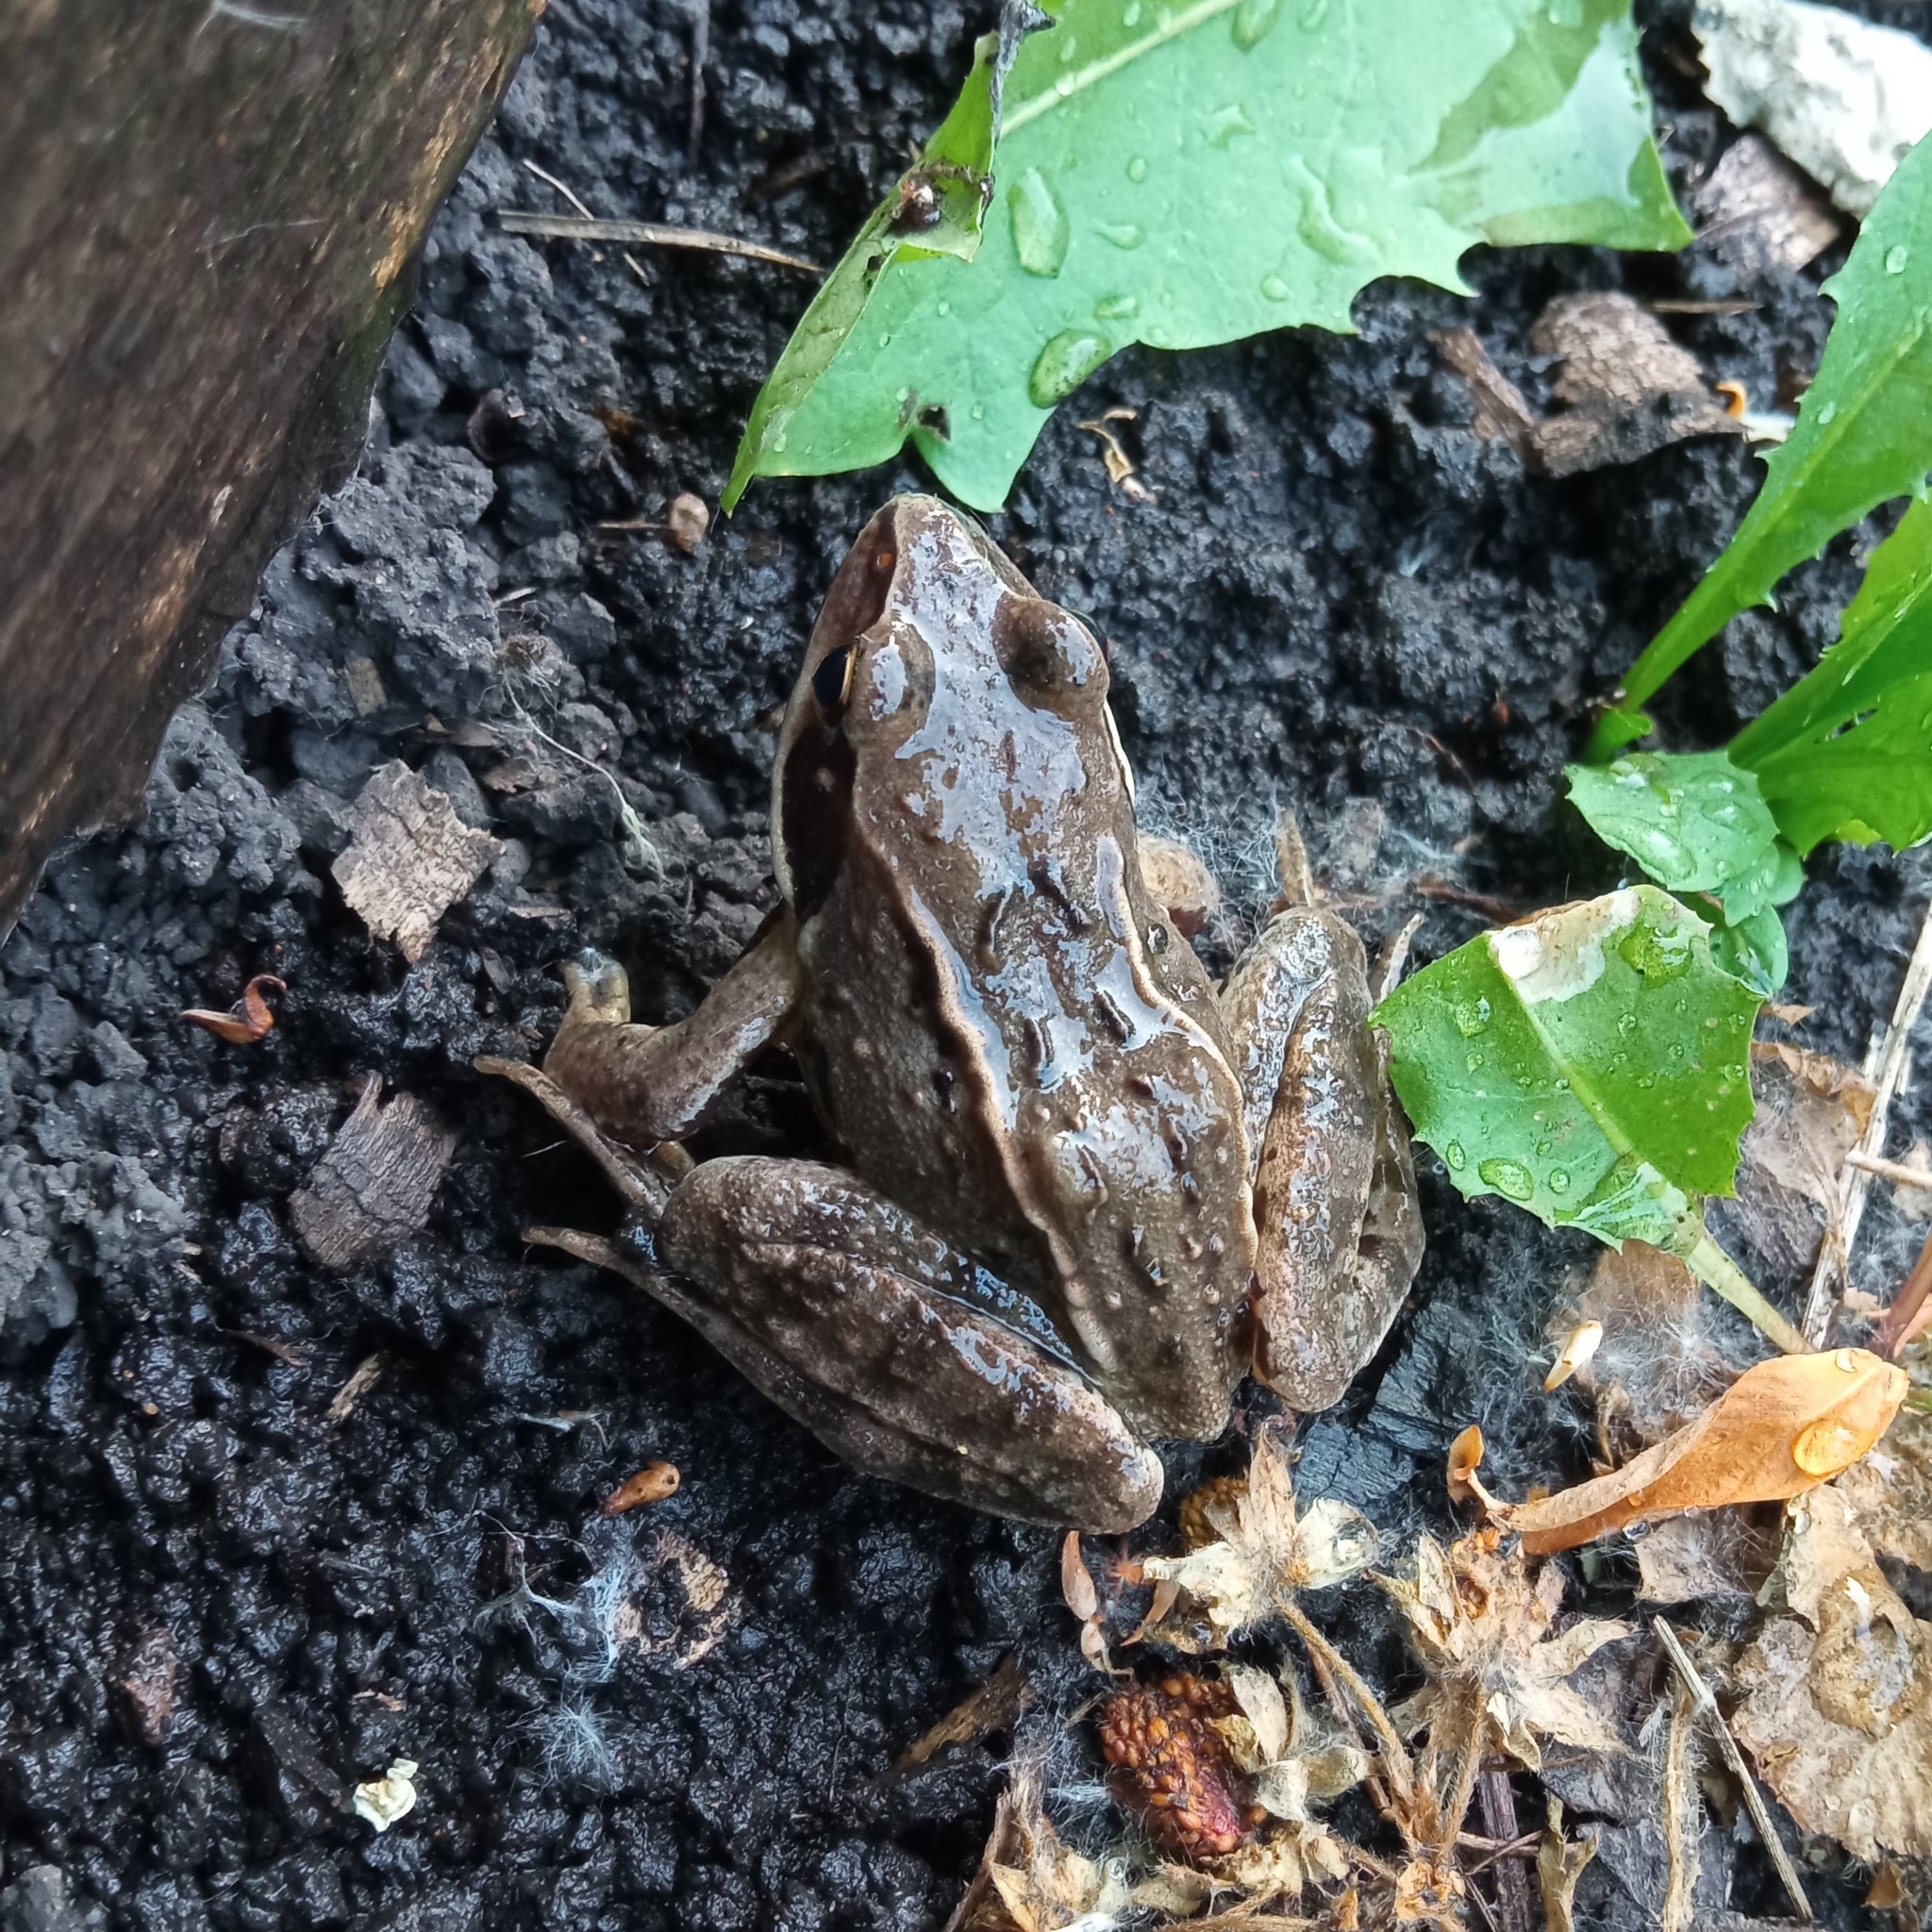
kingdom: Animalia
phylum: Chordata
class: Amphibia
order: Anura
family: Ranidae
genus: Rana
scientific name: Rana arvalis
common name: Moor frog
